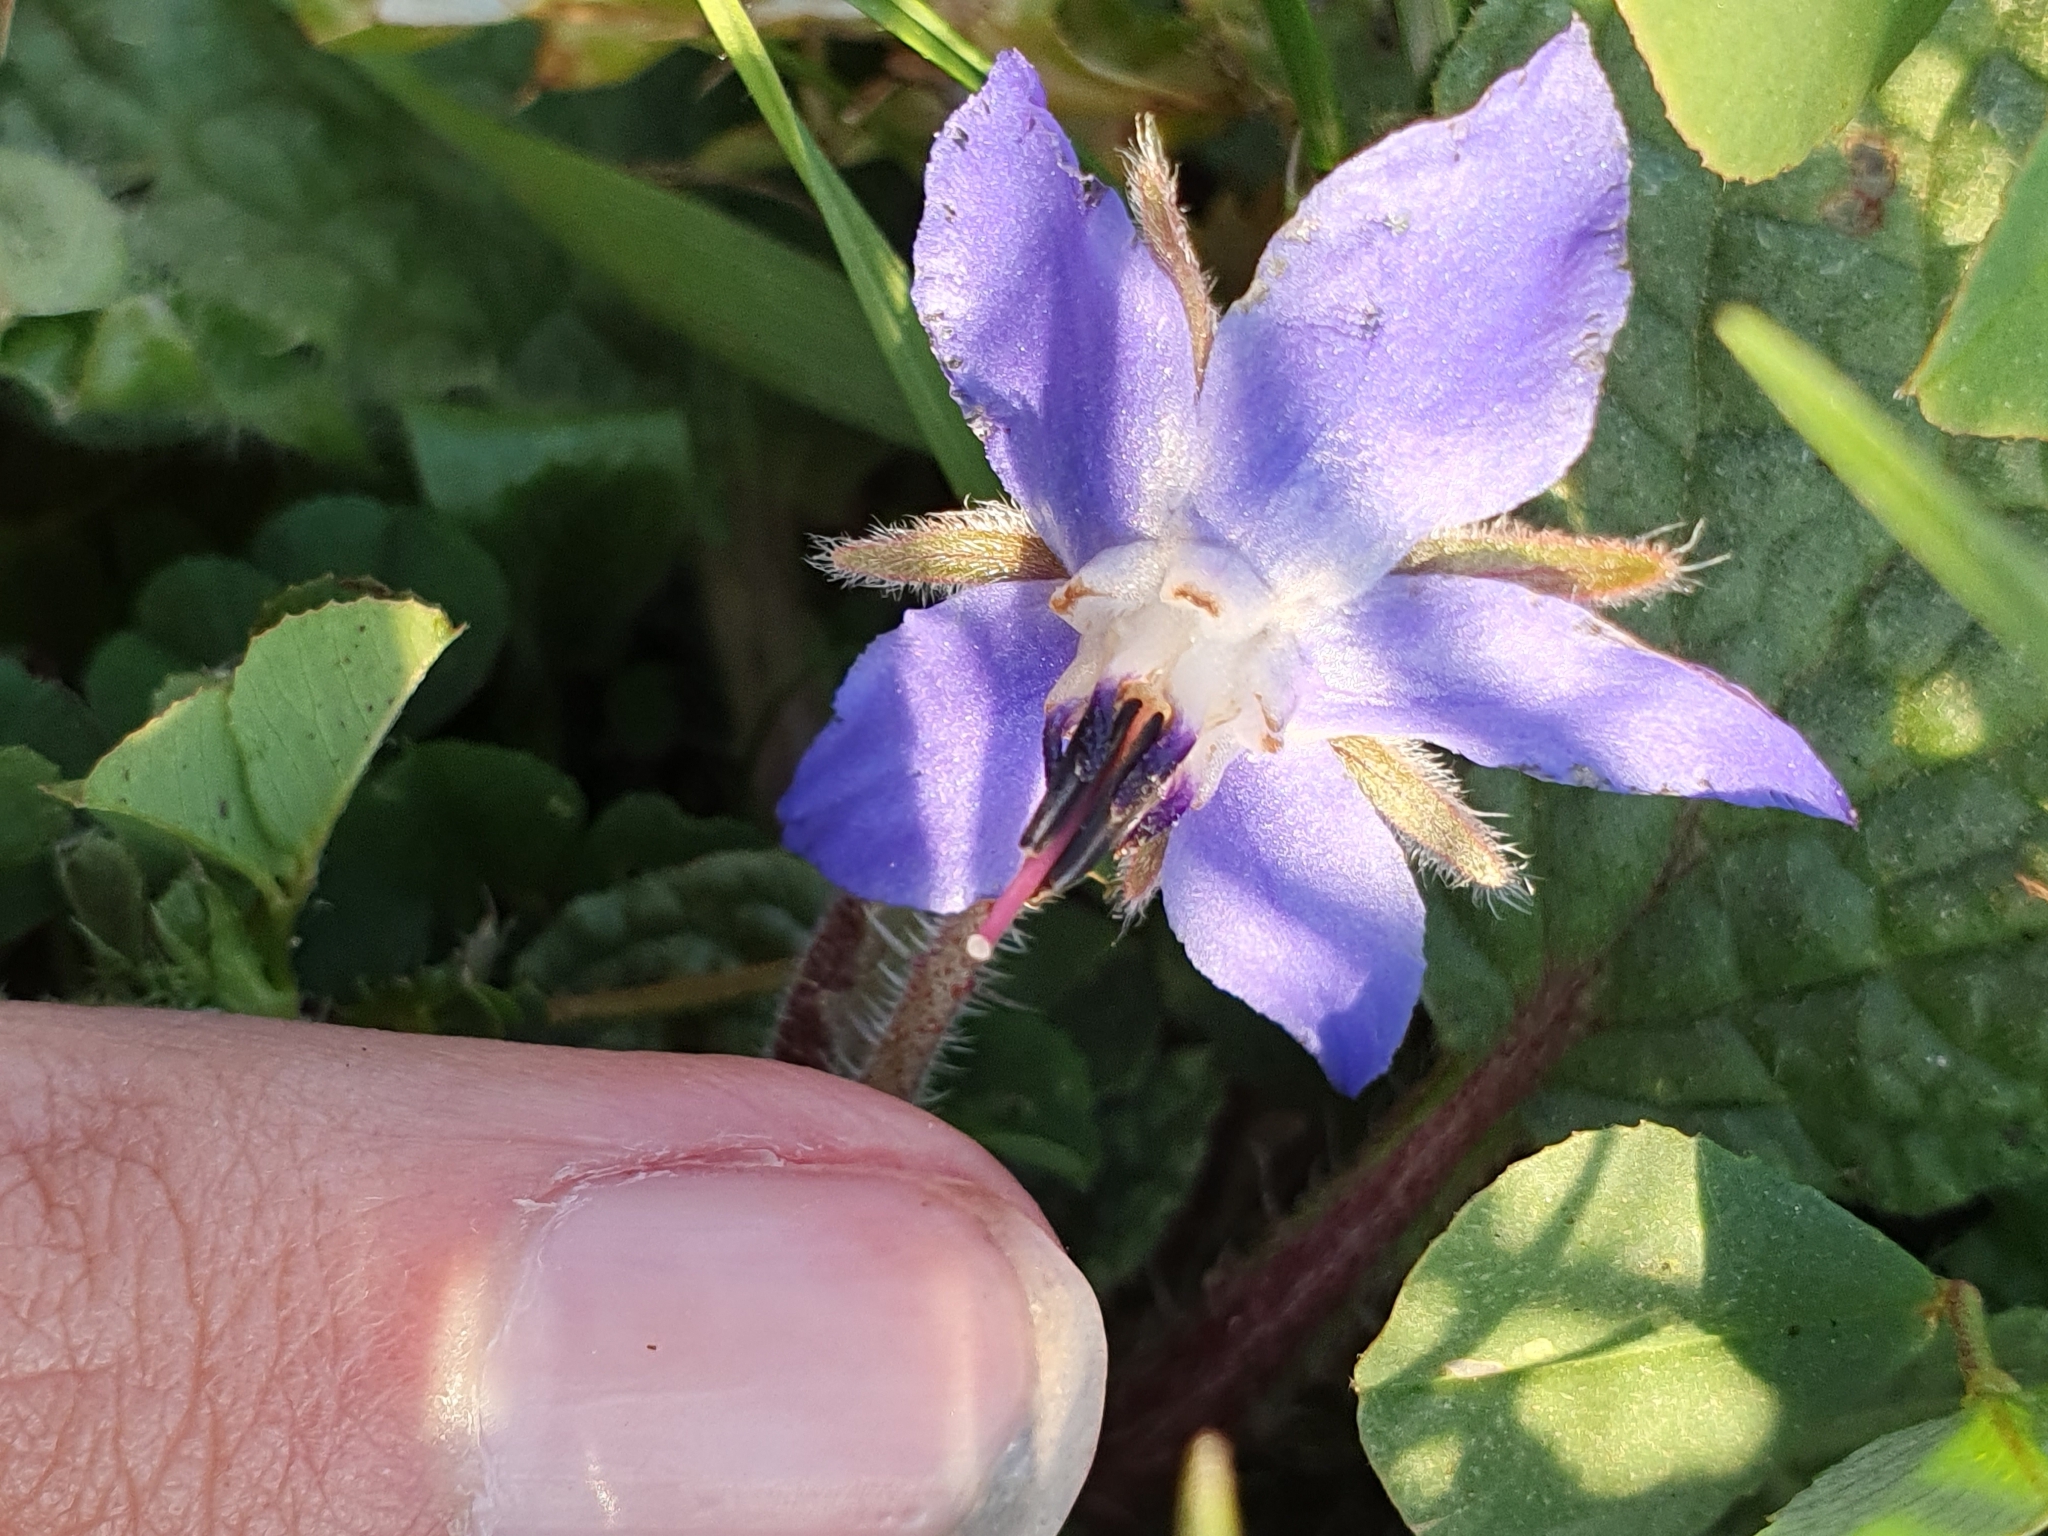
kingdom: Plantae
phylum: Tracheophyta
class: Magnoliopsida
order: Boraginales
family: Boraginaceae
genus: Borago
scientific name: Borago officinalis
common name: Borage
